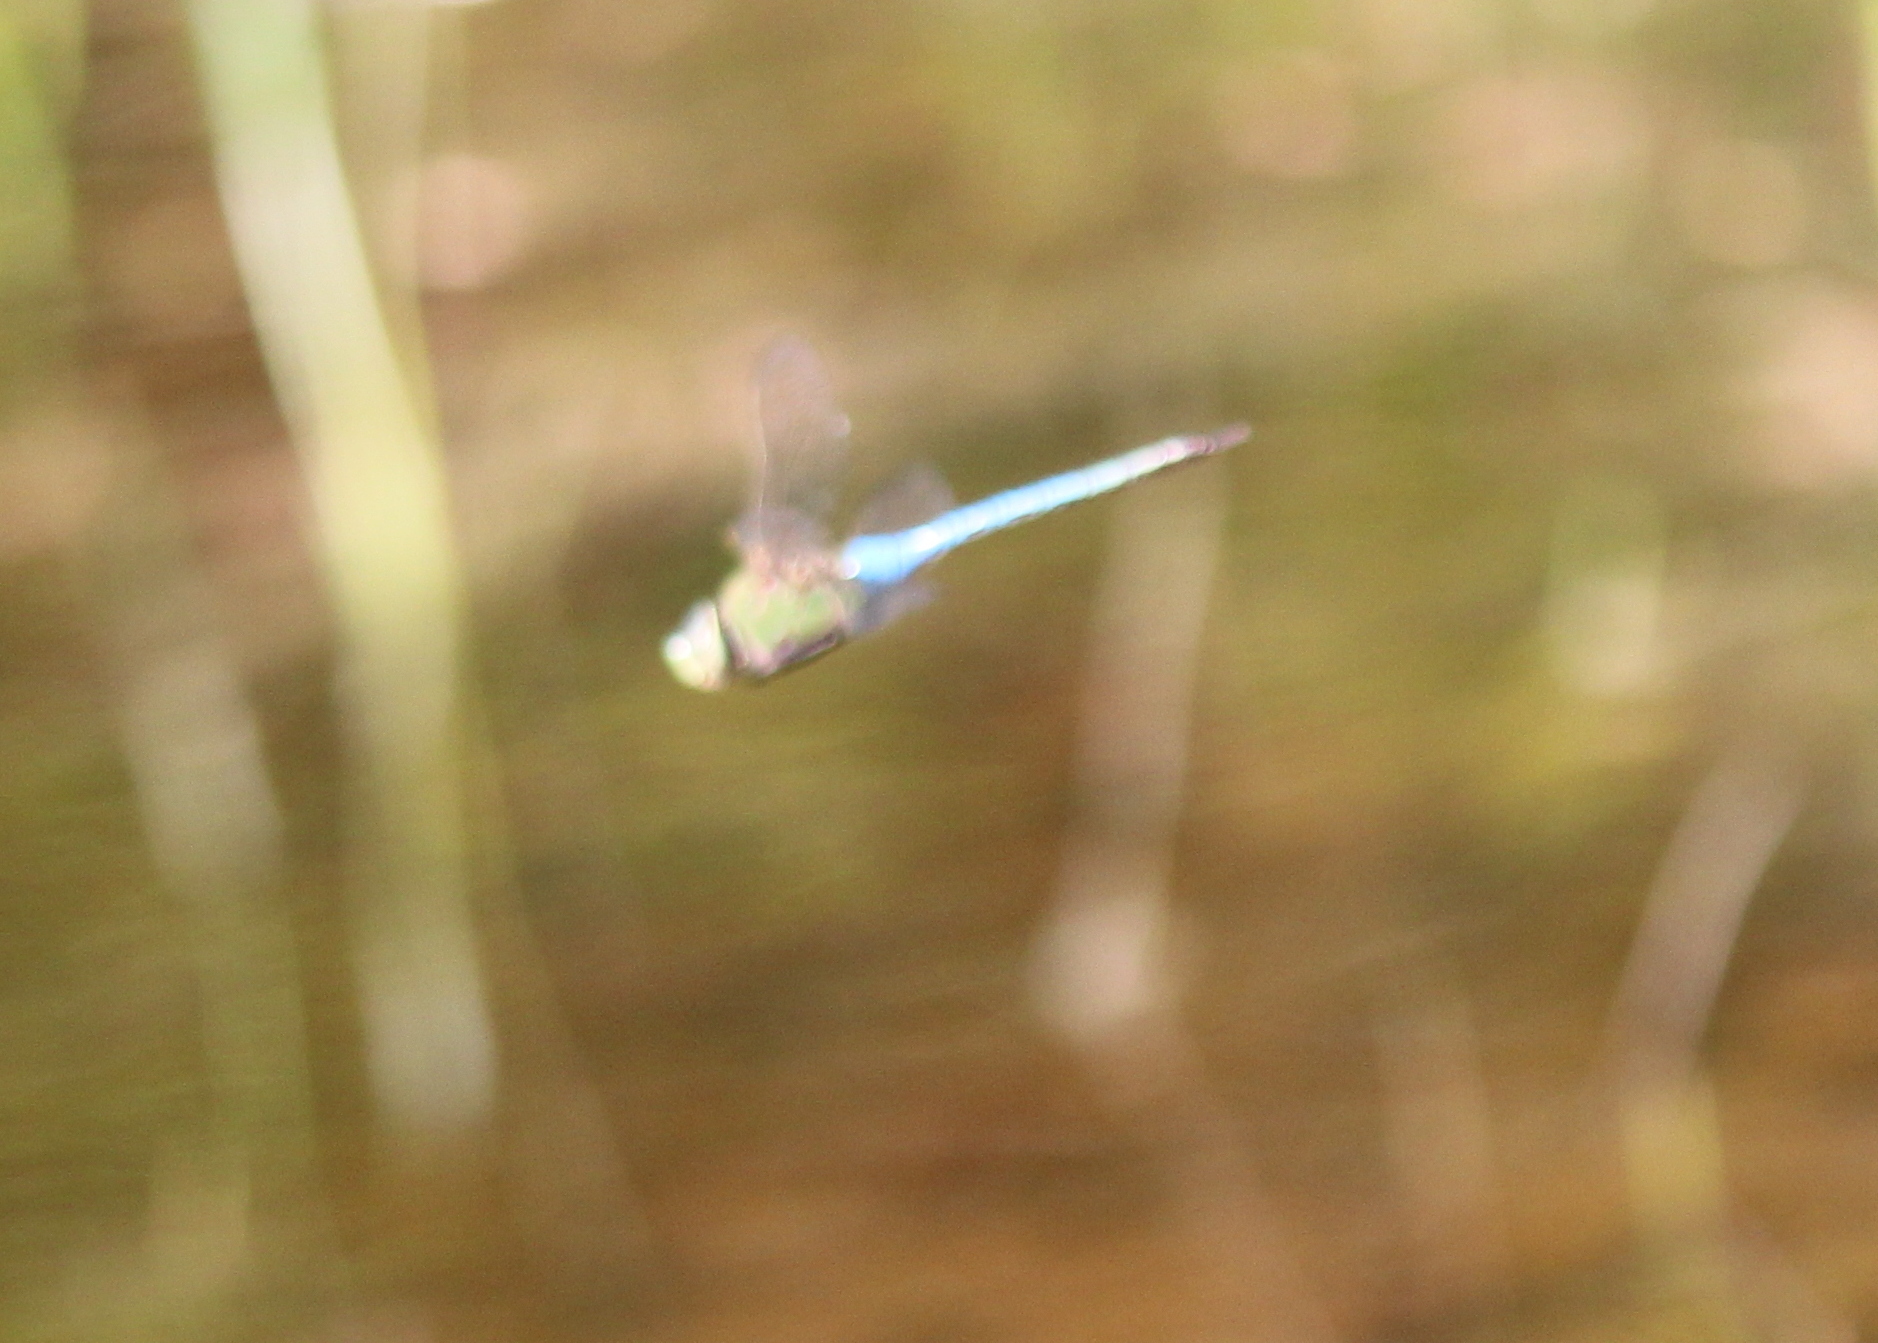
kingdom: Animalia
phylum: Arthropoda
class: Insecta
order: Odonata
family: Aeshnidae
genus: Anax
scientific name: Anax junius
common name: Common green darner
